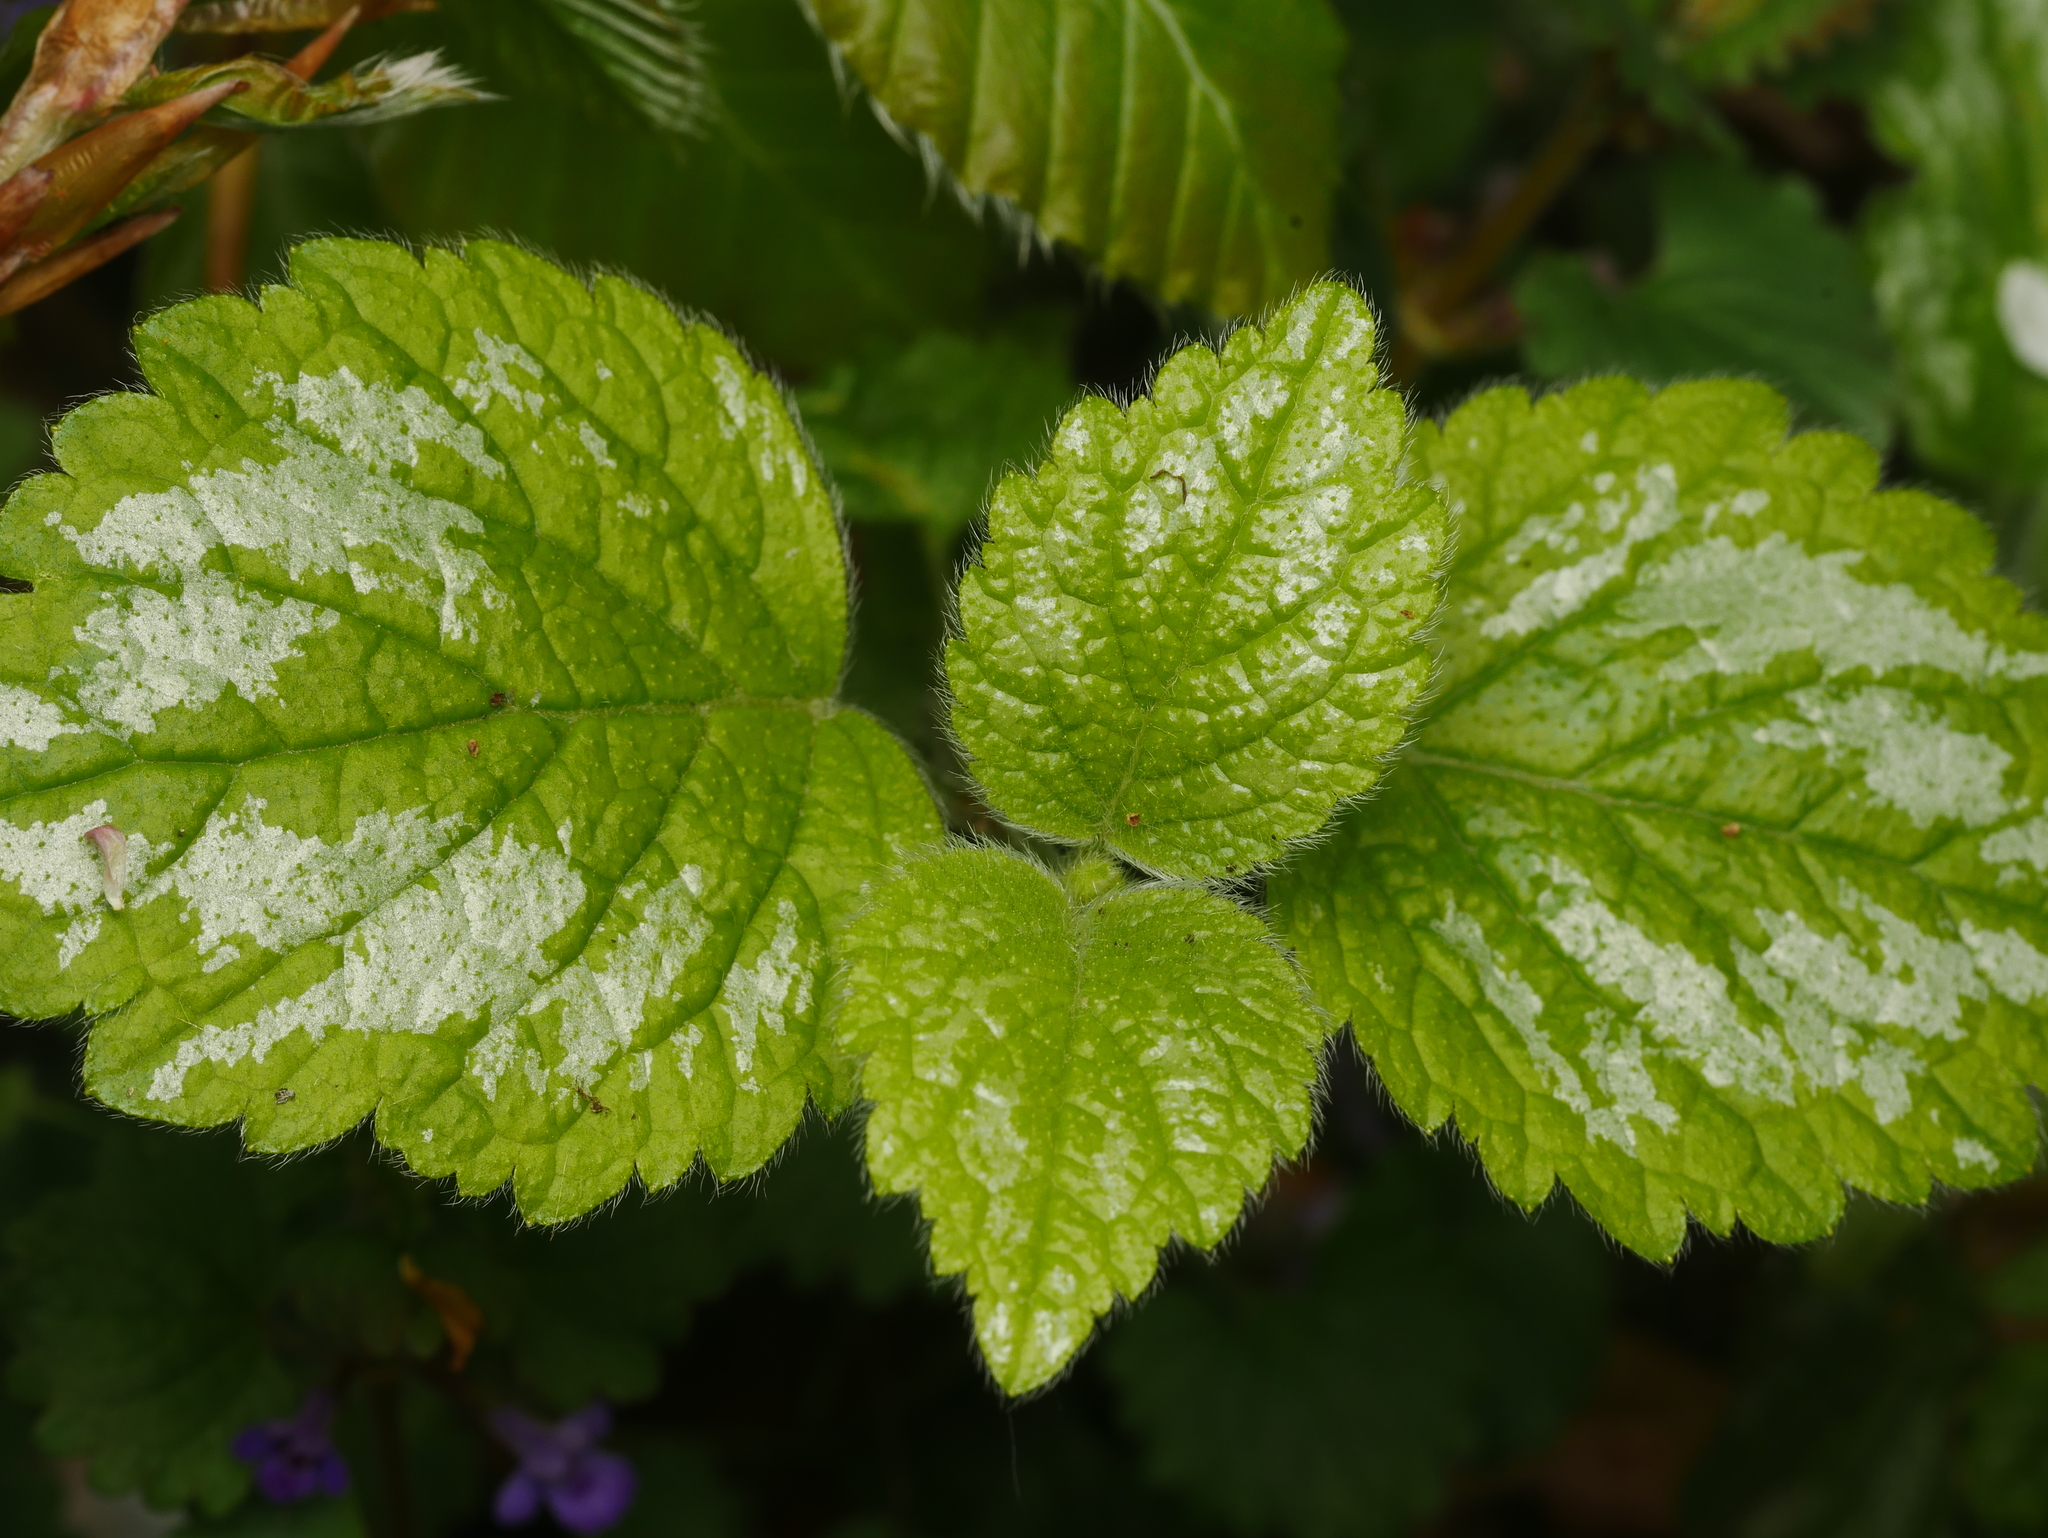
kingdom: Plantae
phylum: Tracheophyta
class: Magnoliopsida
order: Lamiales
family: Lamiaceae
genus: Lamium
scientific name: Lamium galeobdolon
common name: Yellow archangel
